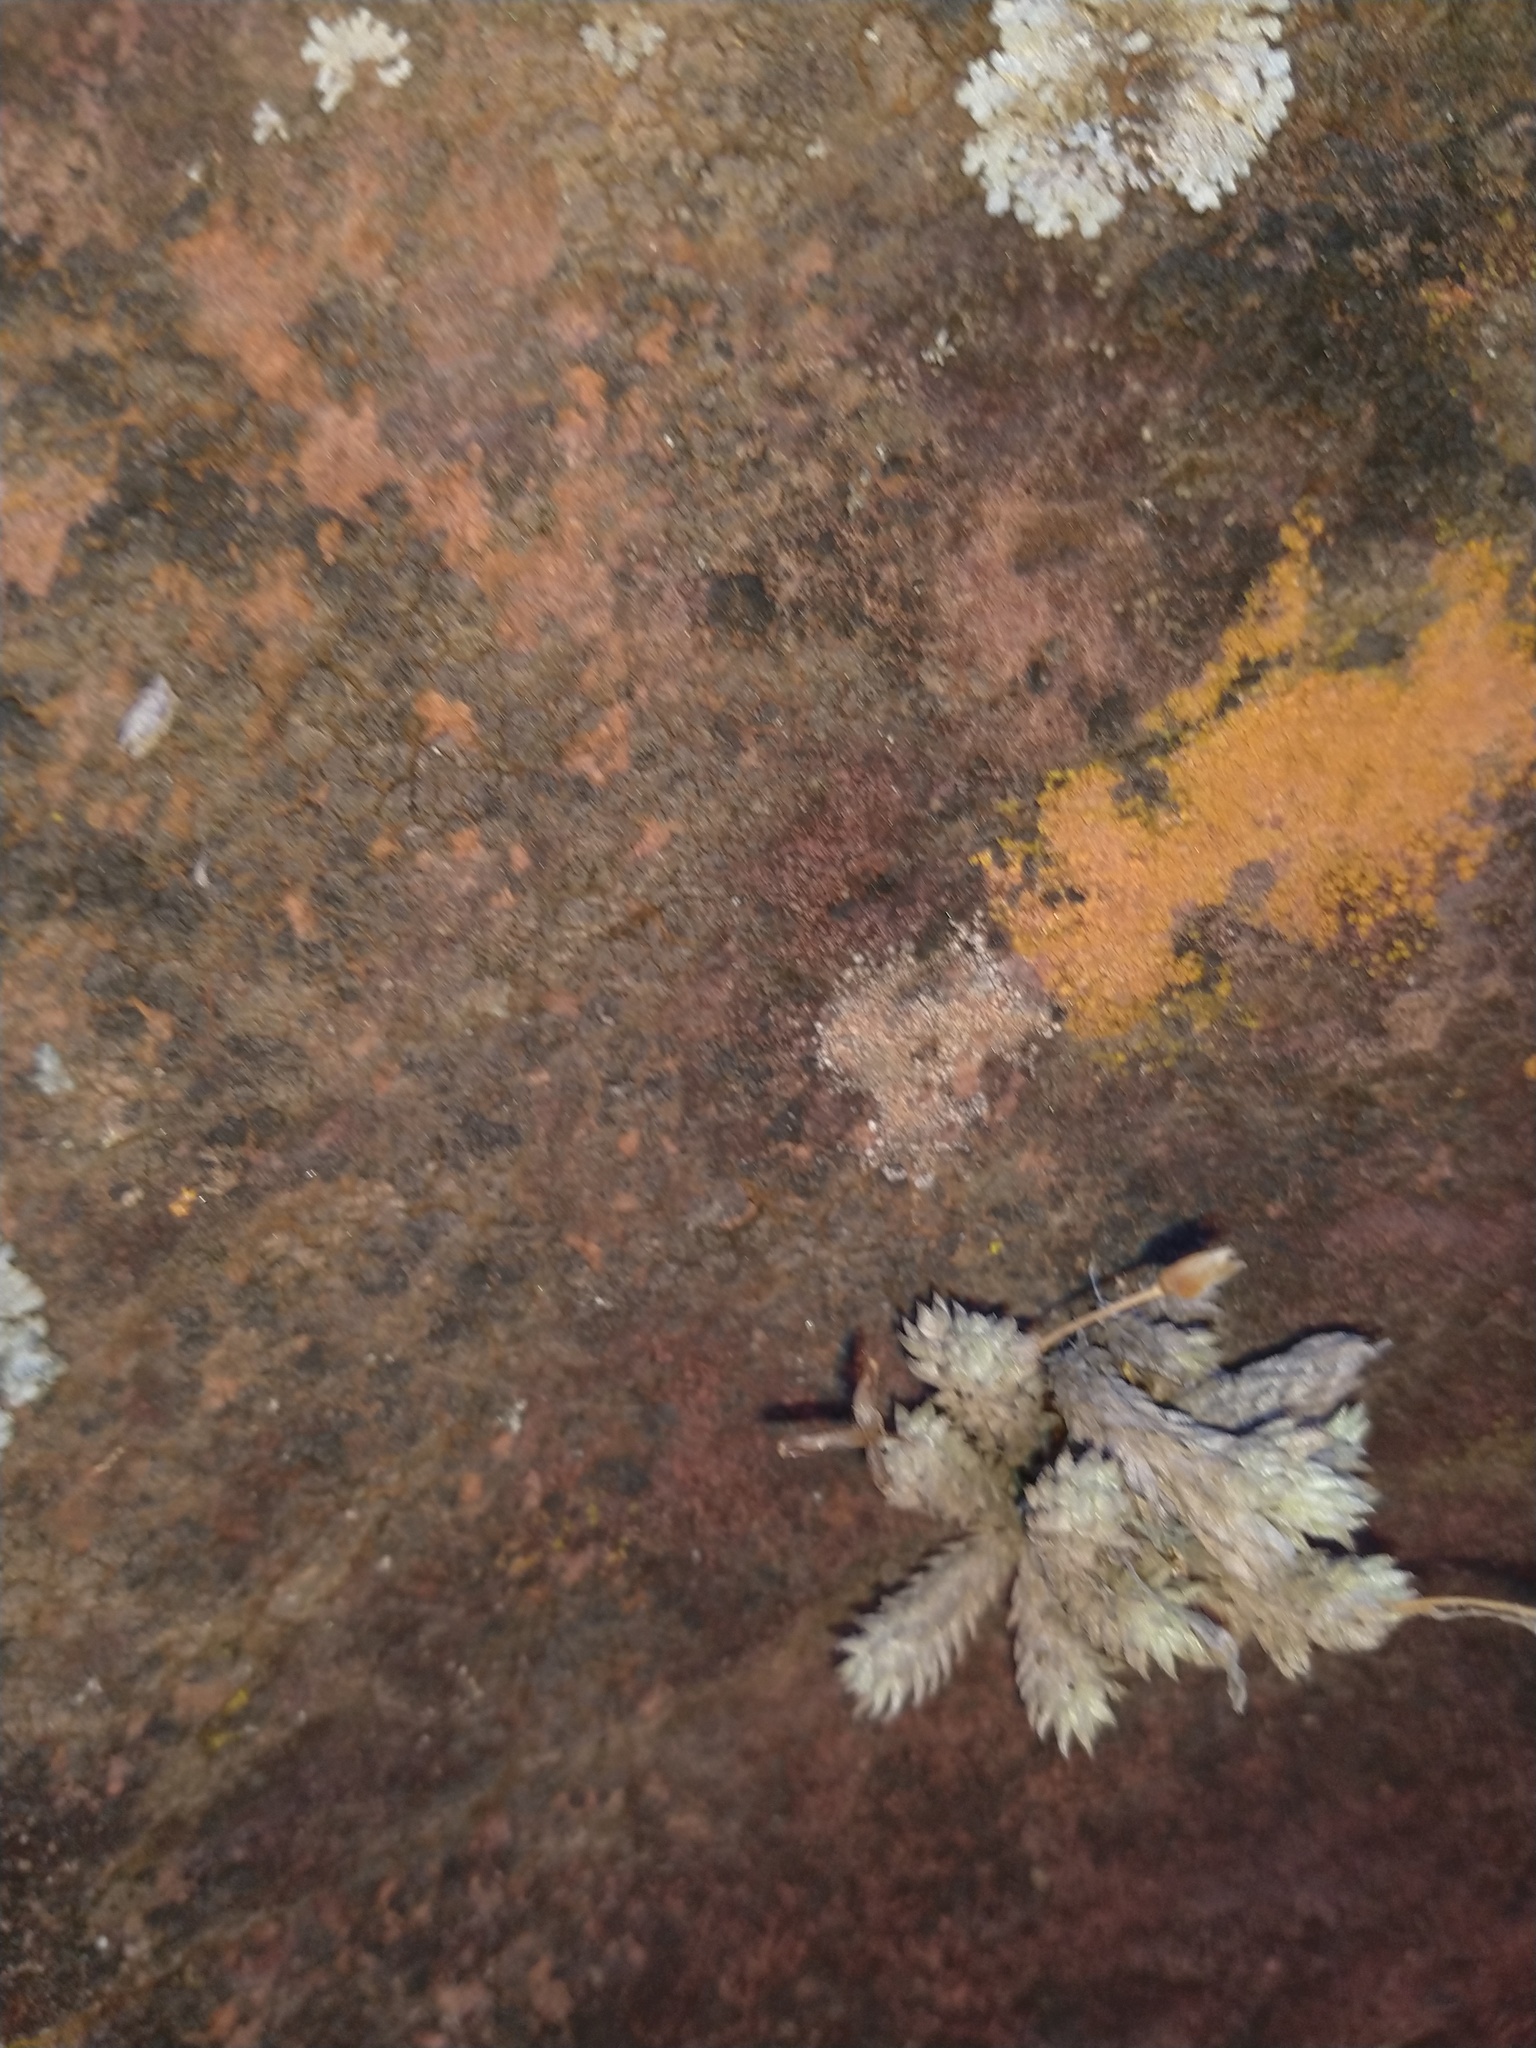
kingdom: Plantae
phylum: Tracheophyta
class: Liliopsida
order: Poales
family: Bromeliaceae
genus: Tillandsia
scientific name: Tillandsia pedicellata
